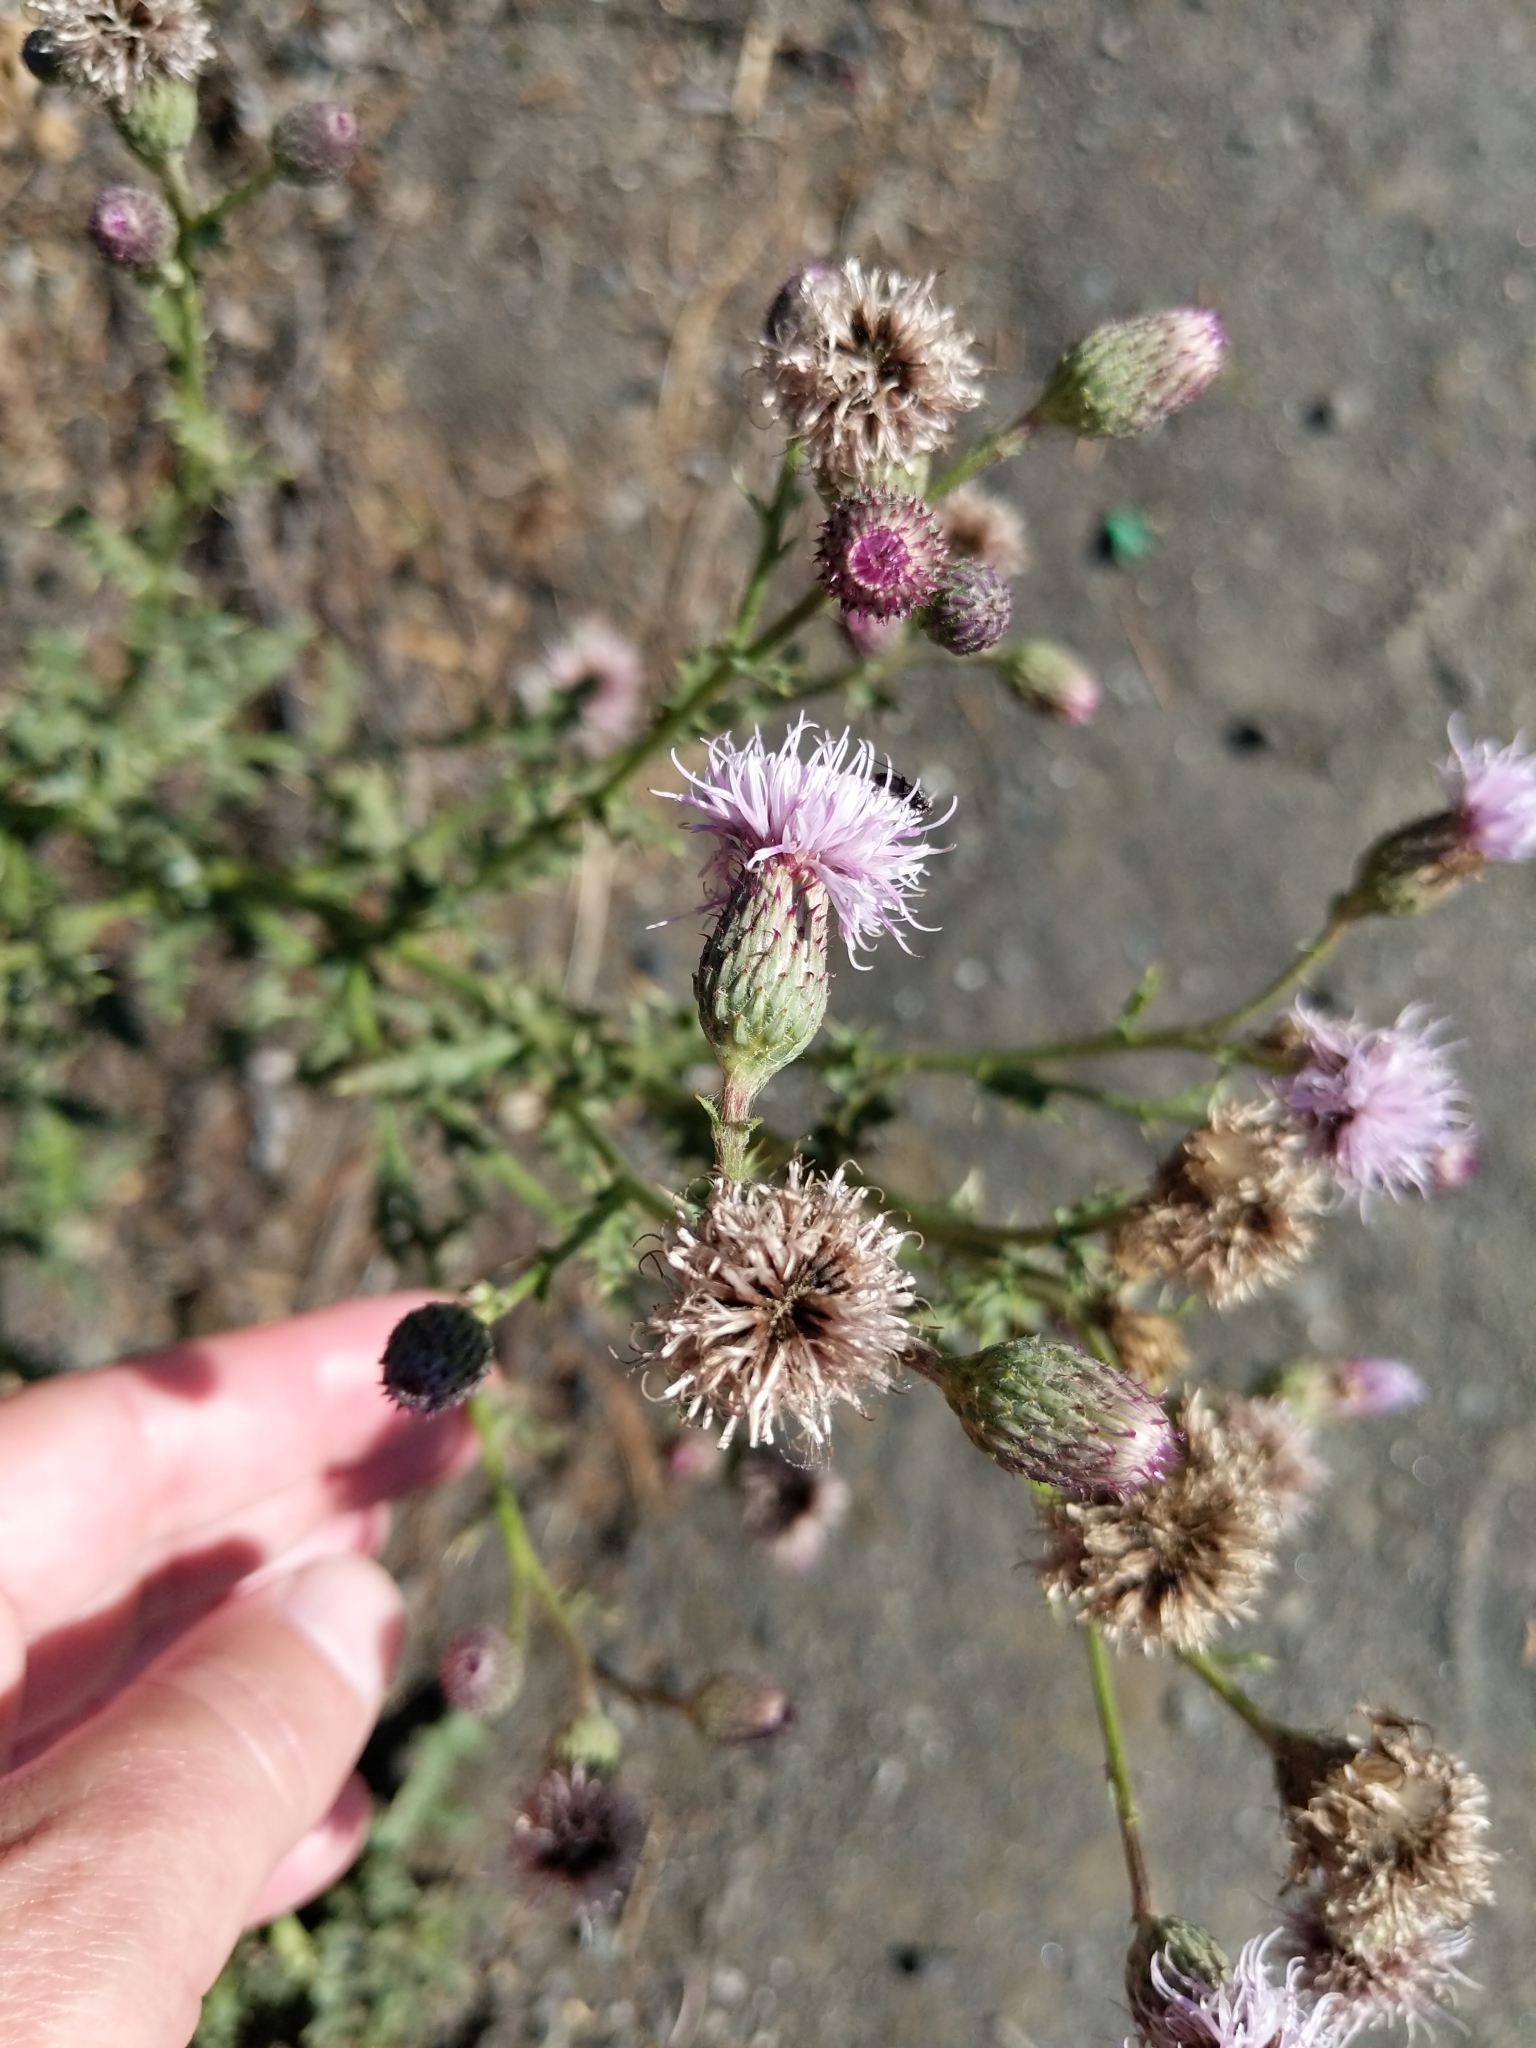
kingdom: Plantae
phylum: Tracheophyta
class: Magnoliopsida
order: Asterales
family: Asteraceae
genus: Cirsium
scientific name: Cirsium arvense
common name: Creeping thistle
